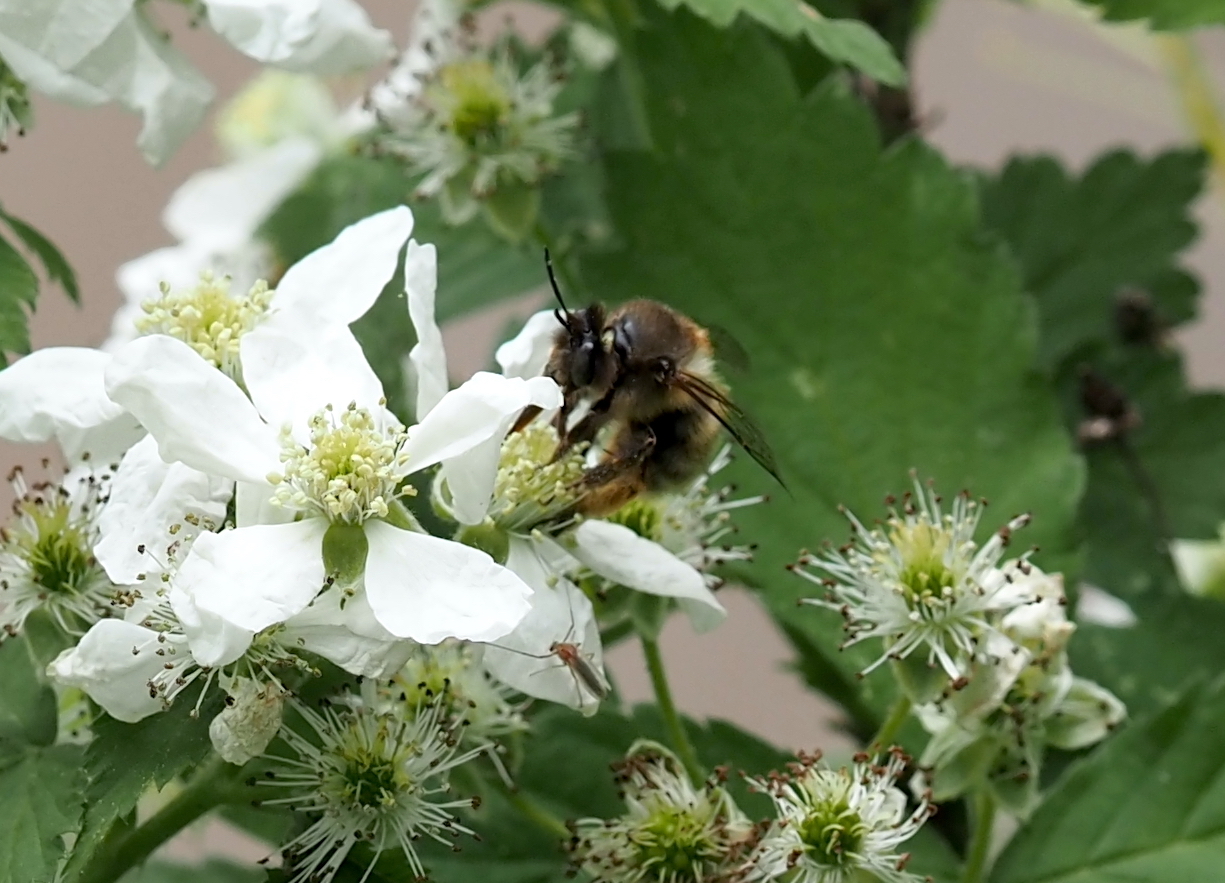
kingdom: Animalia
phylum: Arthropoda
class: Insecta
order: Hymenoptera
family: Apidae
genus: Anthophora
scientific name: Anthophora villosula
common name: Asian shaggy digger
